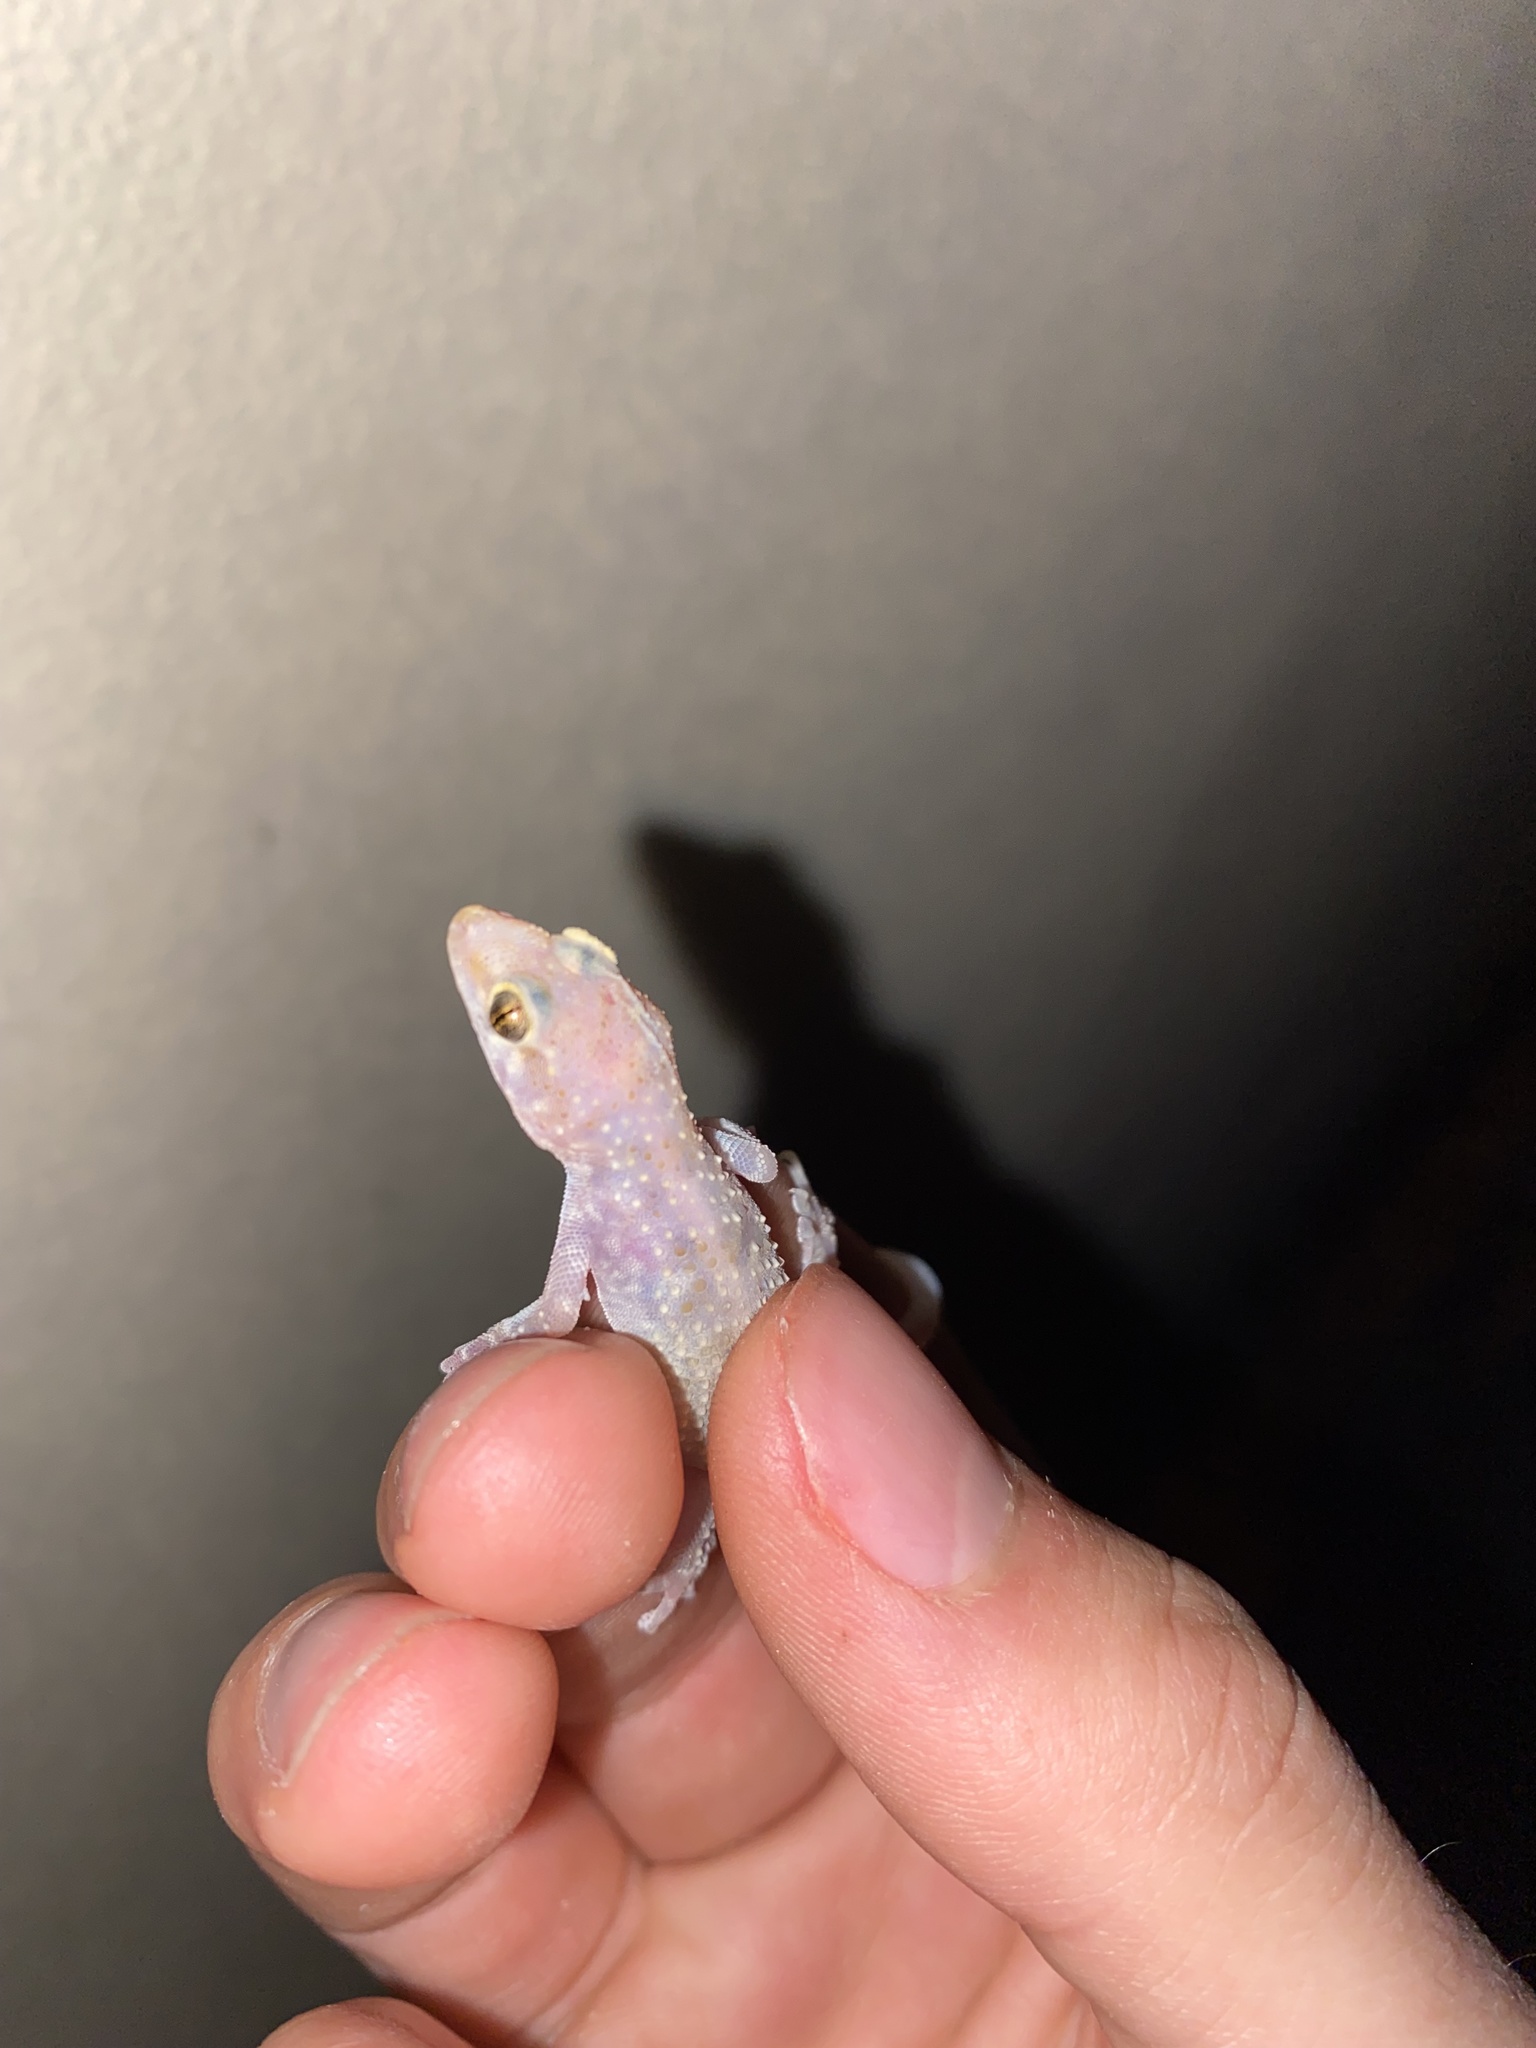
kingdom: Animalia
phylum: Chordata
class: Squamata
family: Gekkonidae
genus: Hemidactylus
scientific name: Hemidactylus turcicus
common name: Turkish gecko
